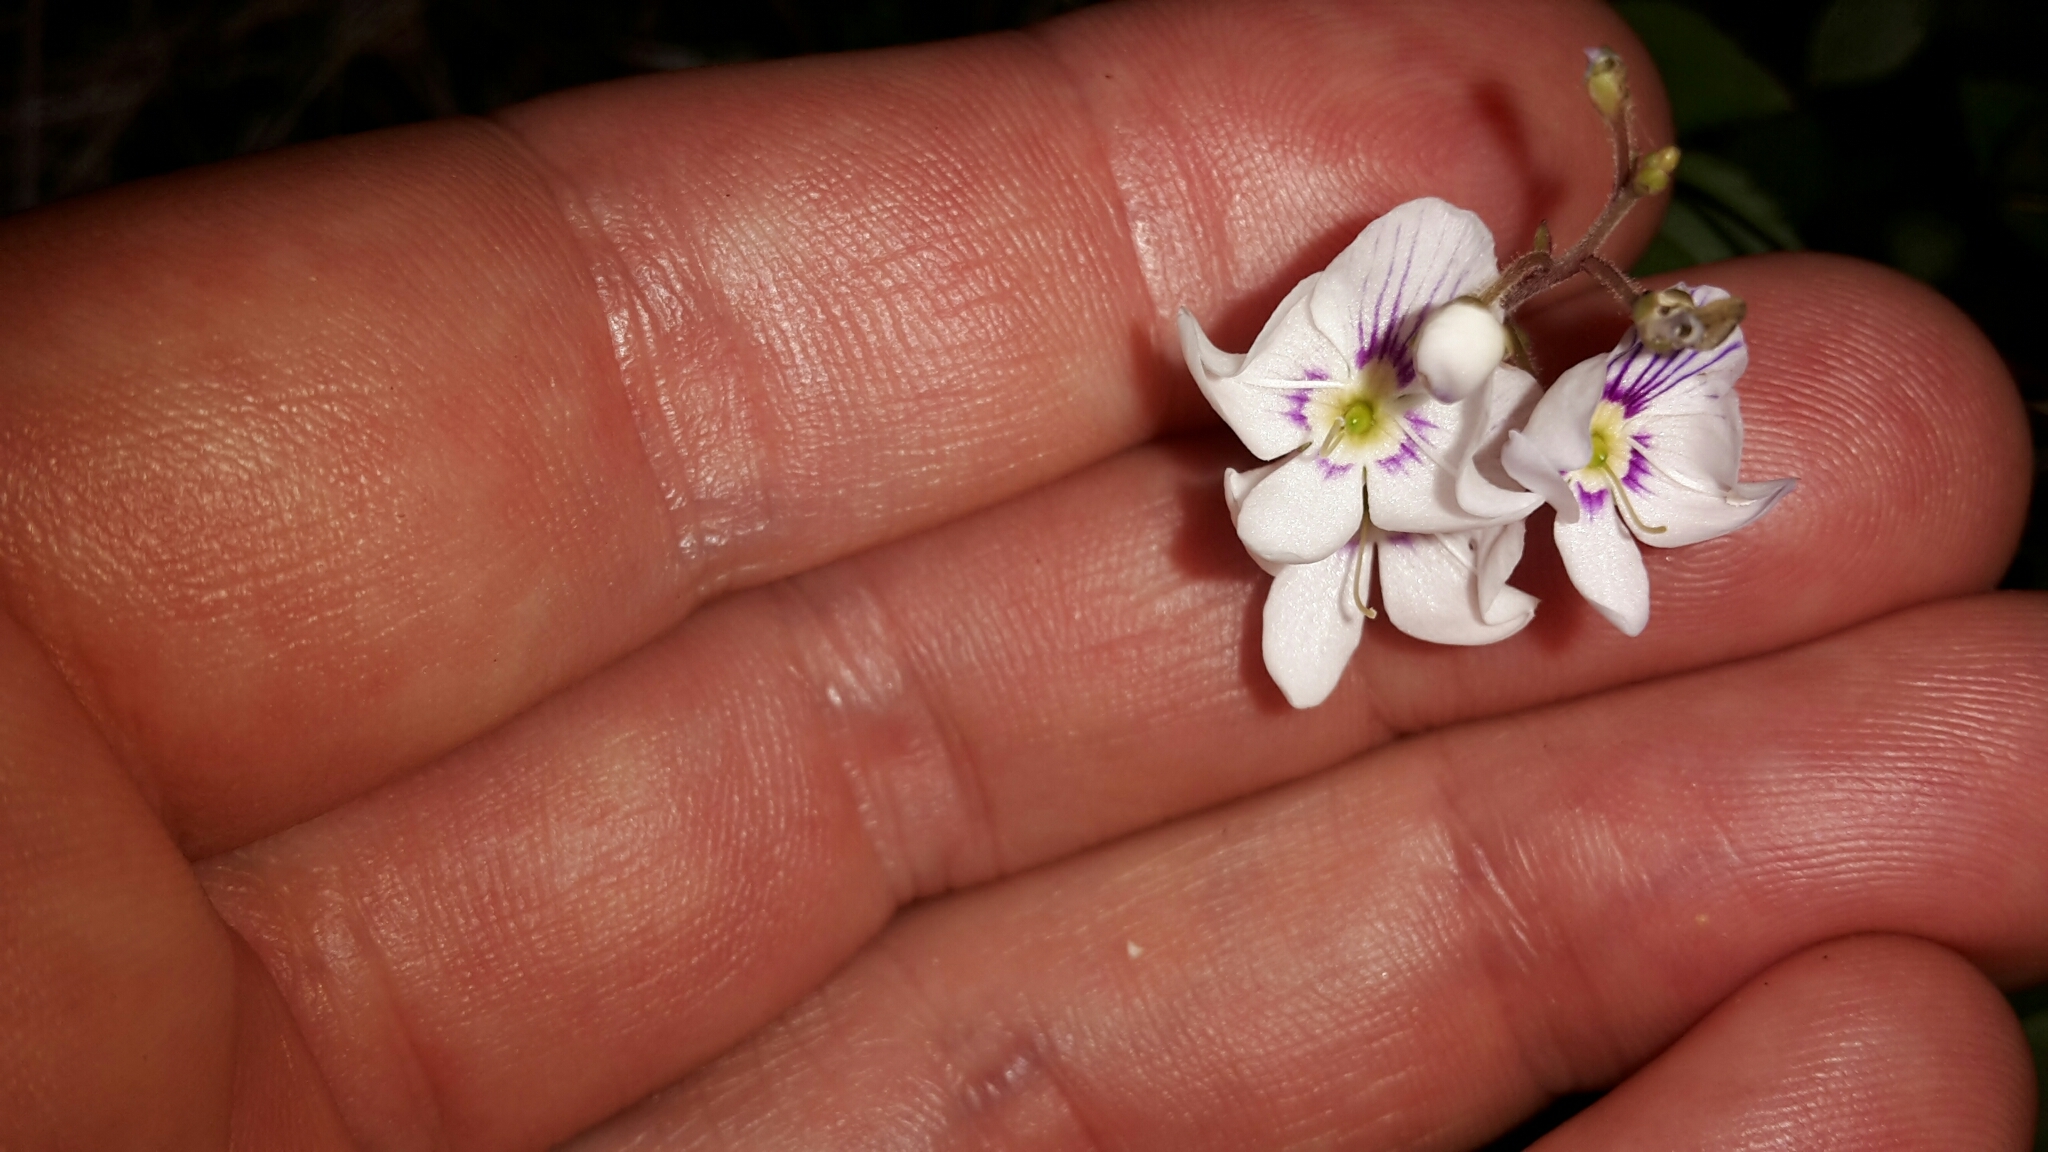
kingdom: Plantae
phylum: Tracheophyta
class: Magnoliopsida
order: Lamiales
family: Plantaginaceae
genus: Veronica
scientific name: Veronica lanceolata
